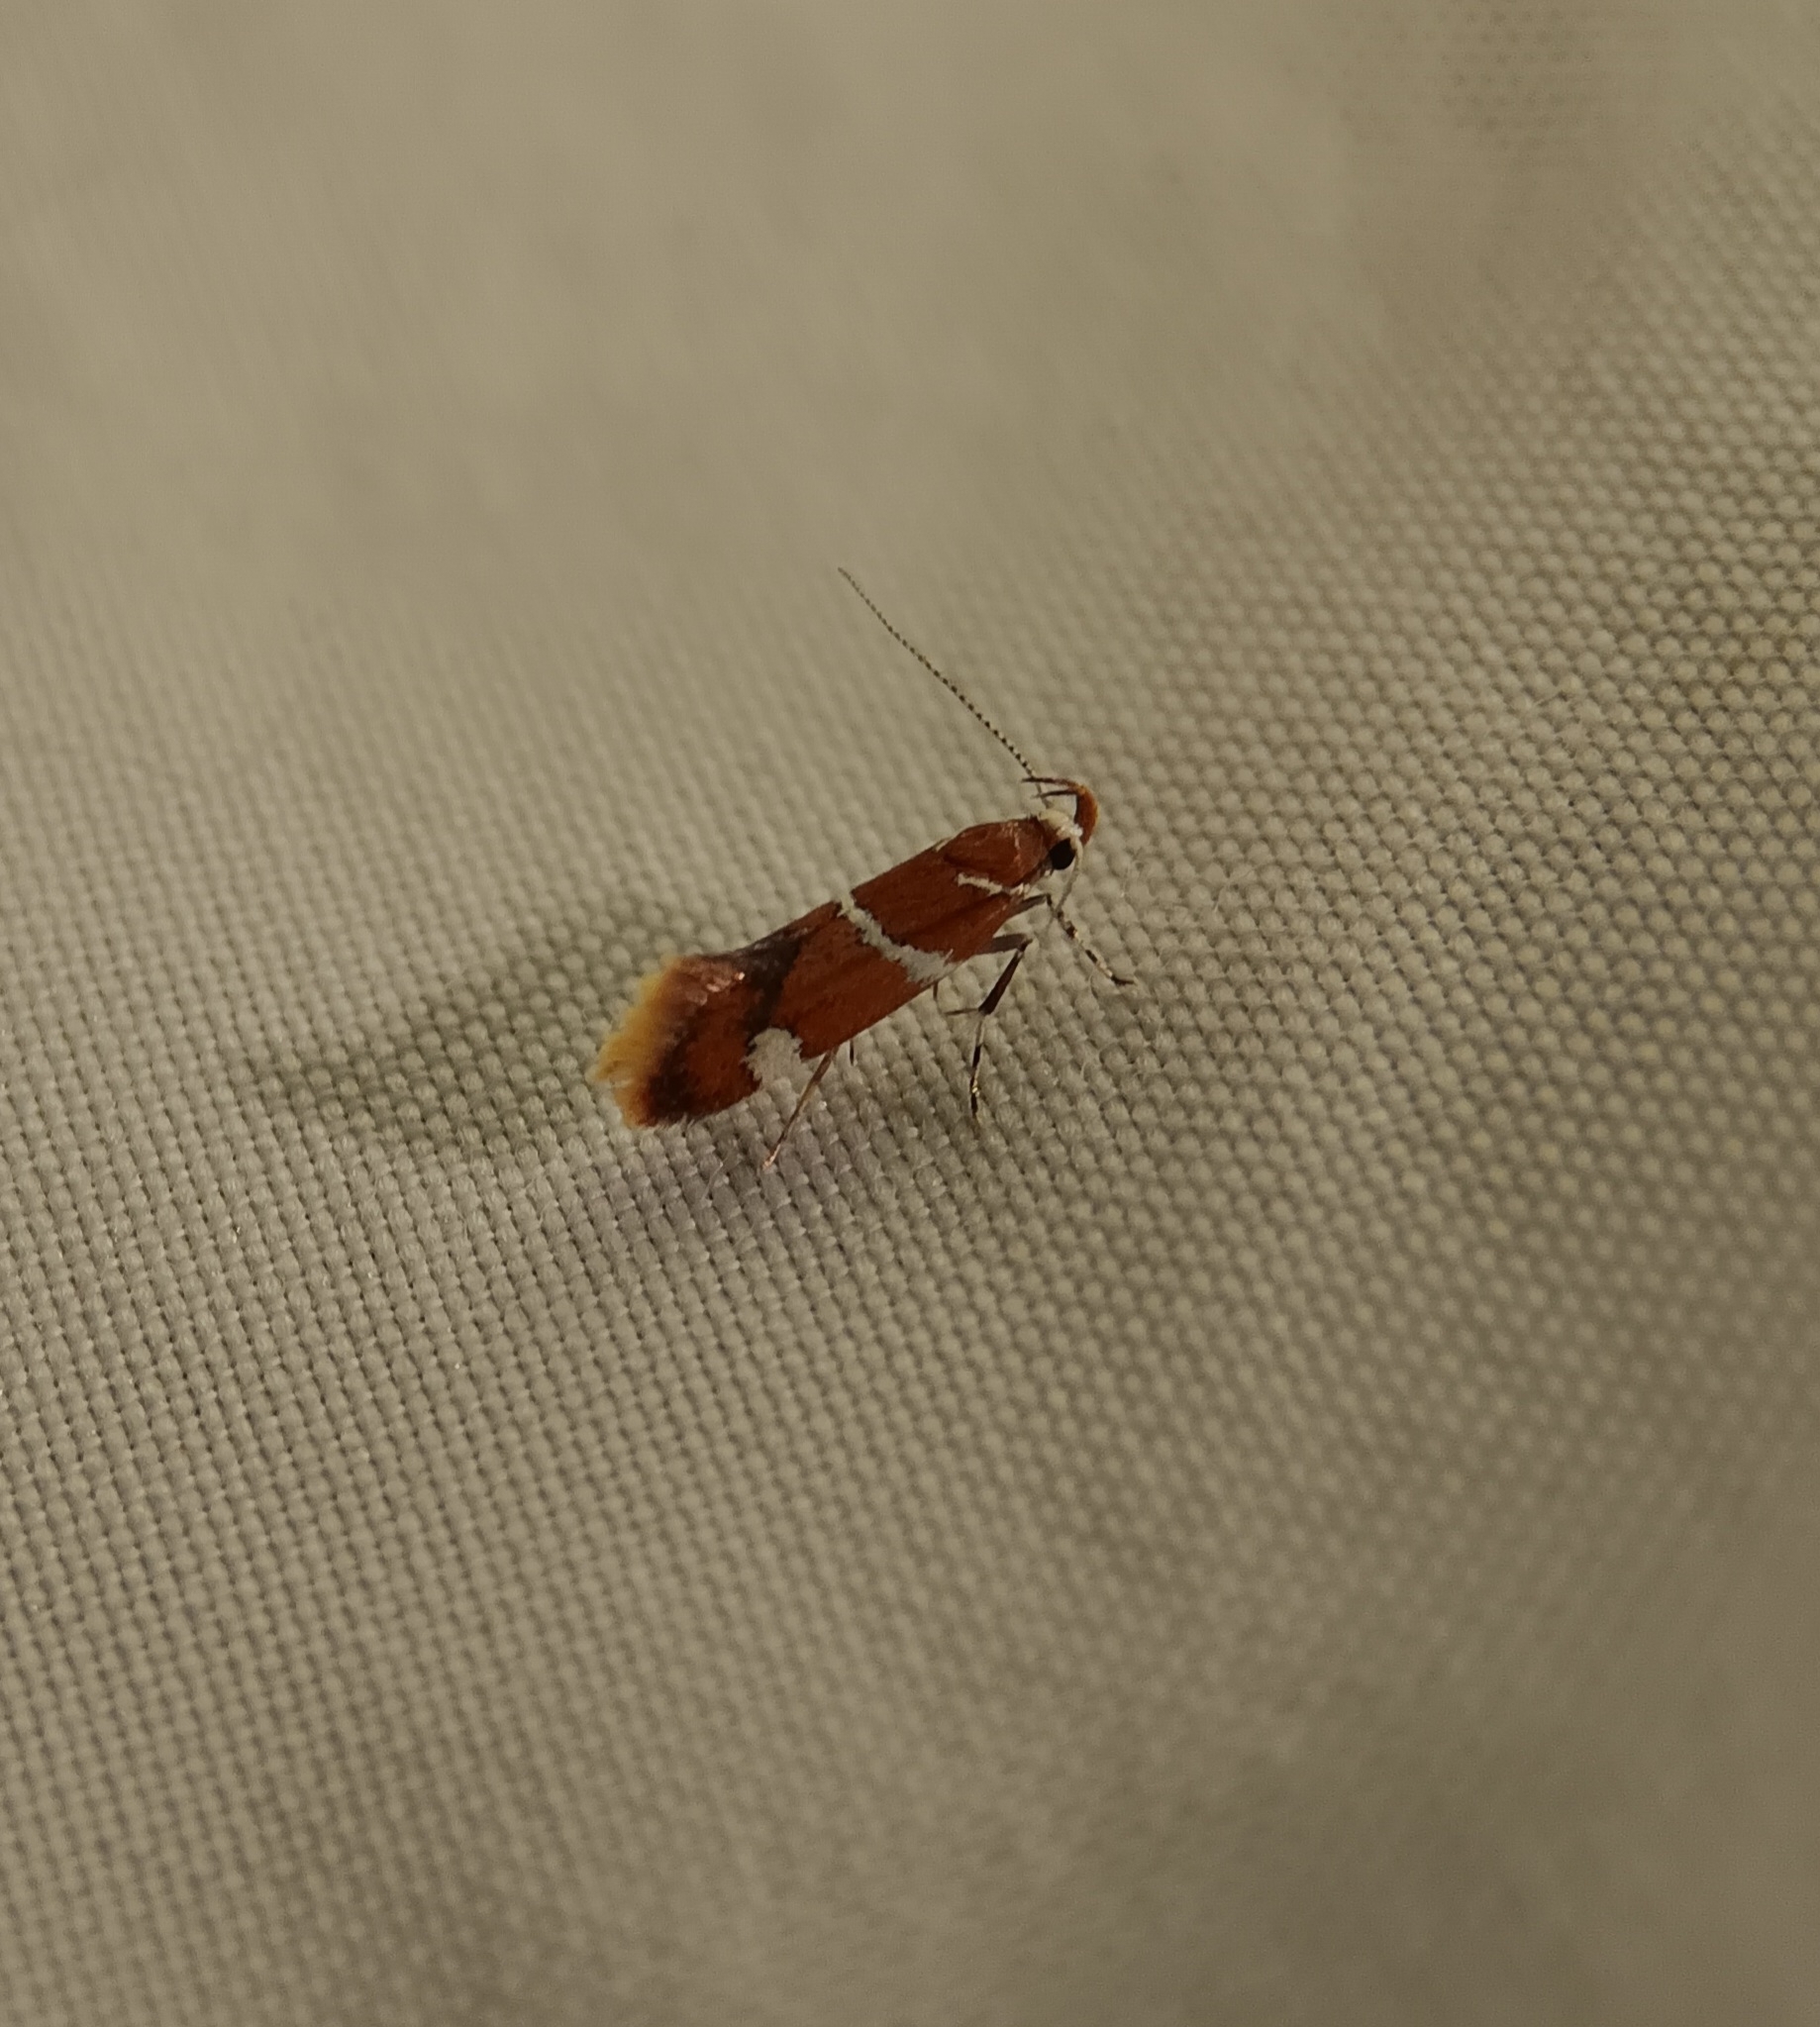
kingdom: Animalia
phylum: Arthropoda
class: Insecta
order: Lepidoptera
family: Oecophoridae
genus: Promalactis
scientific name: Promalactis suzukiella
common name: Moth
